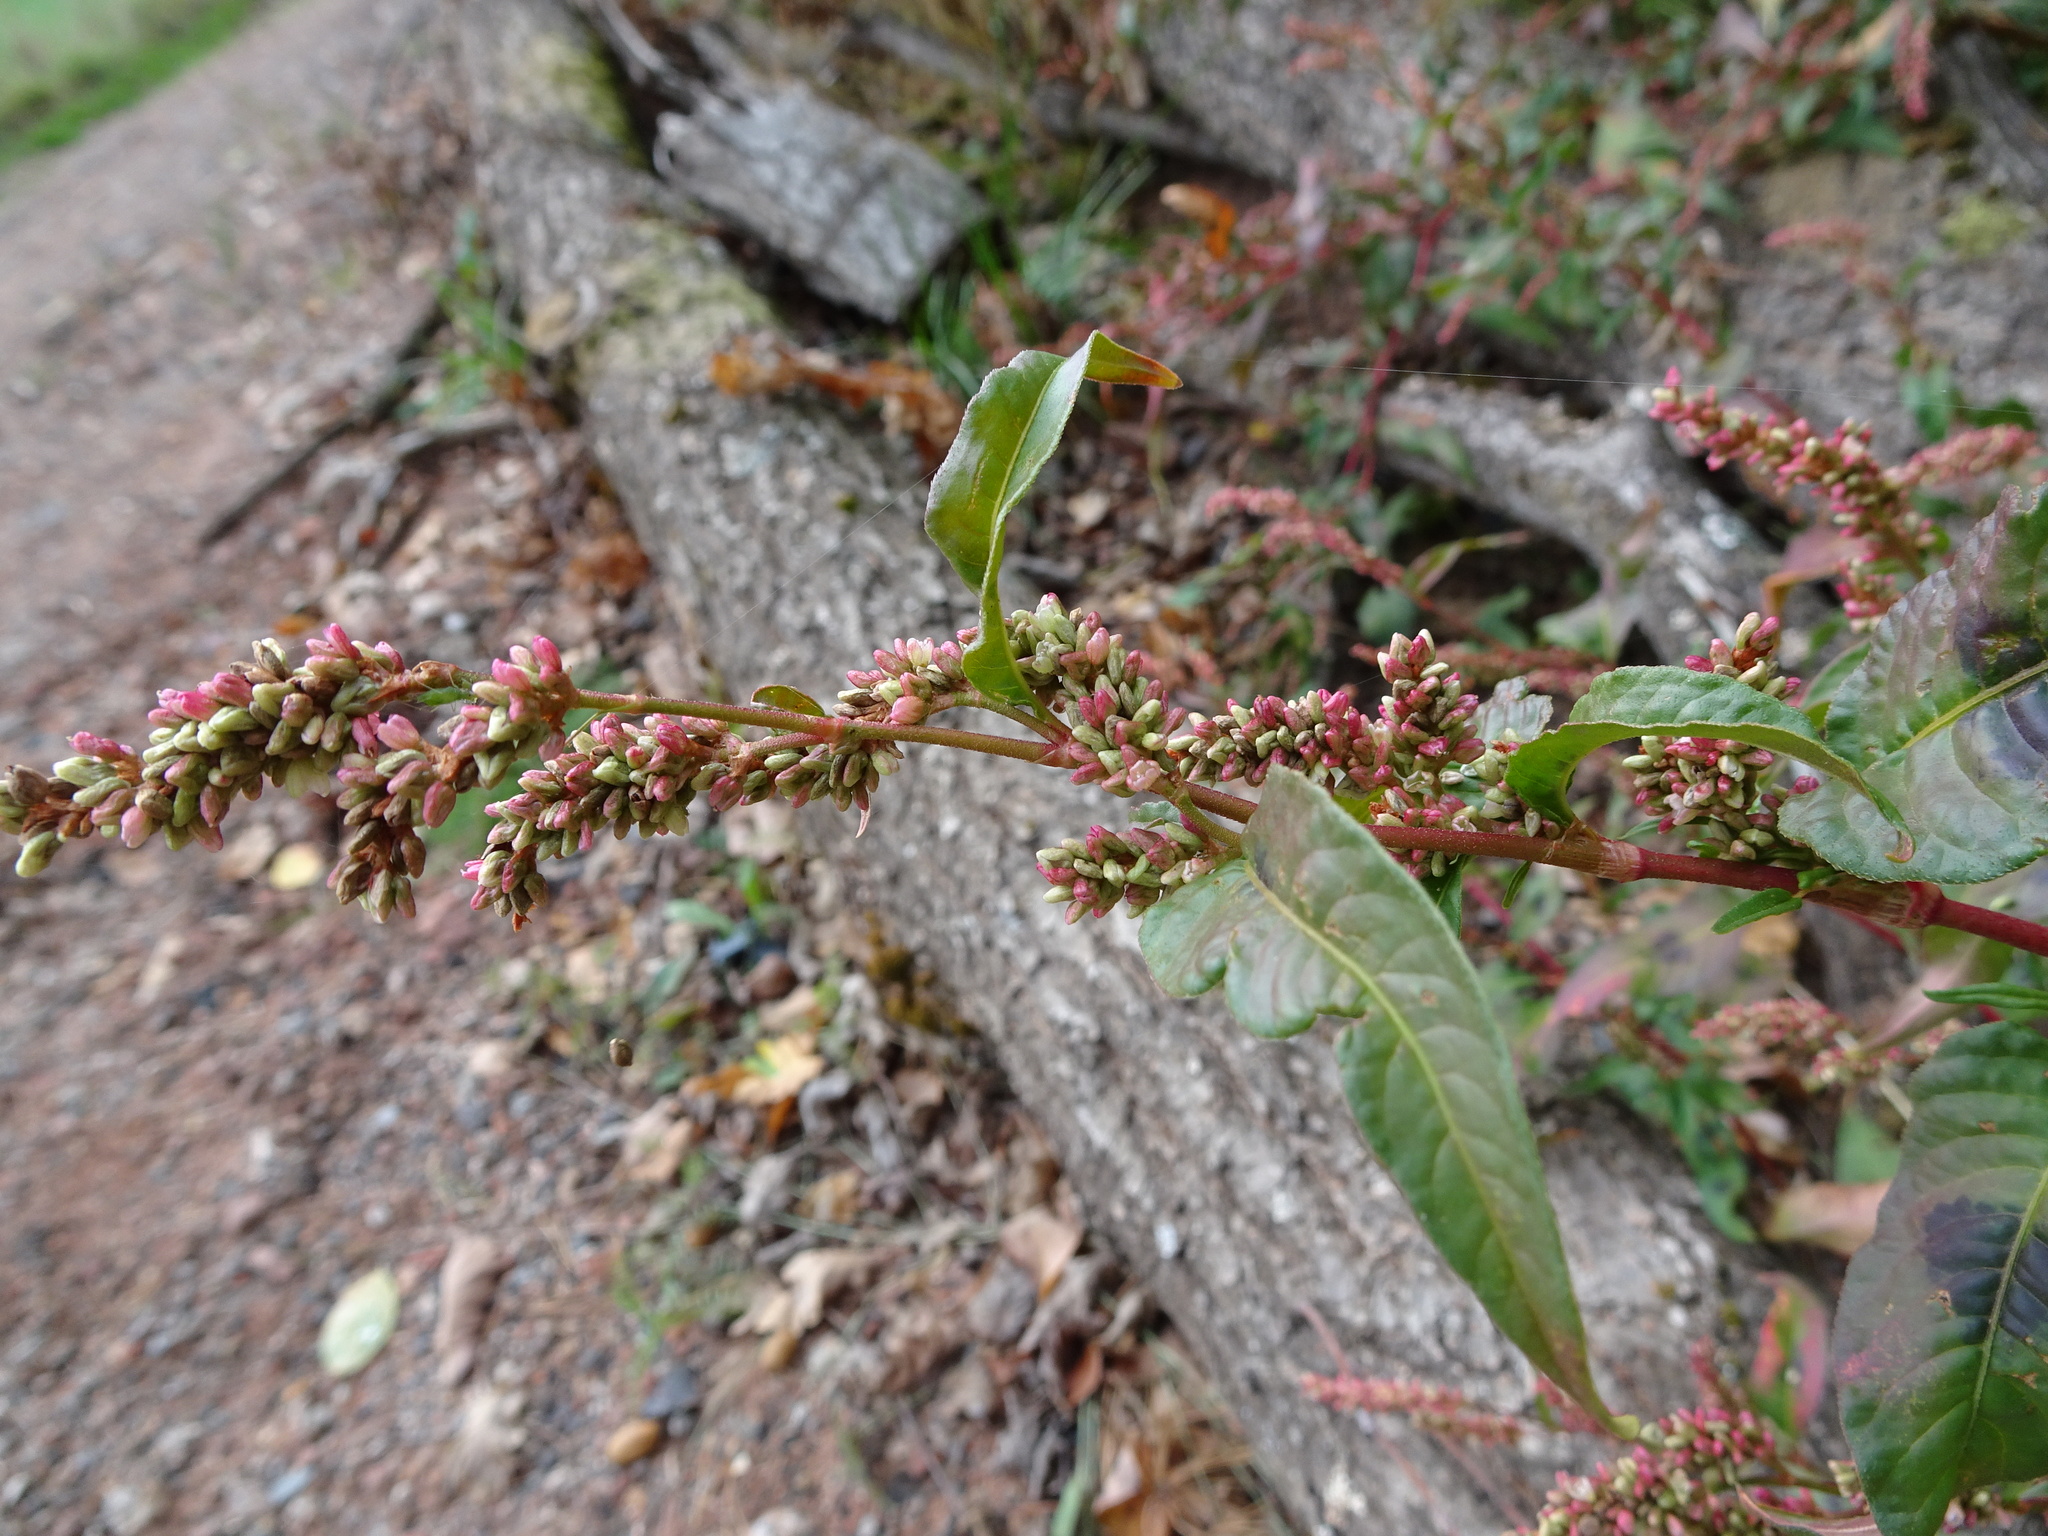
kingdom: Plantae
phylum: Tracheophyta
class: Magnoliopsida
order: Caryophyllales
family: Polygonaceae
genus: Persicaria
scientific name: Persicaria maculosa
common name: Redshank
